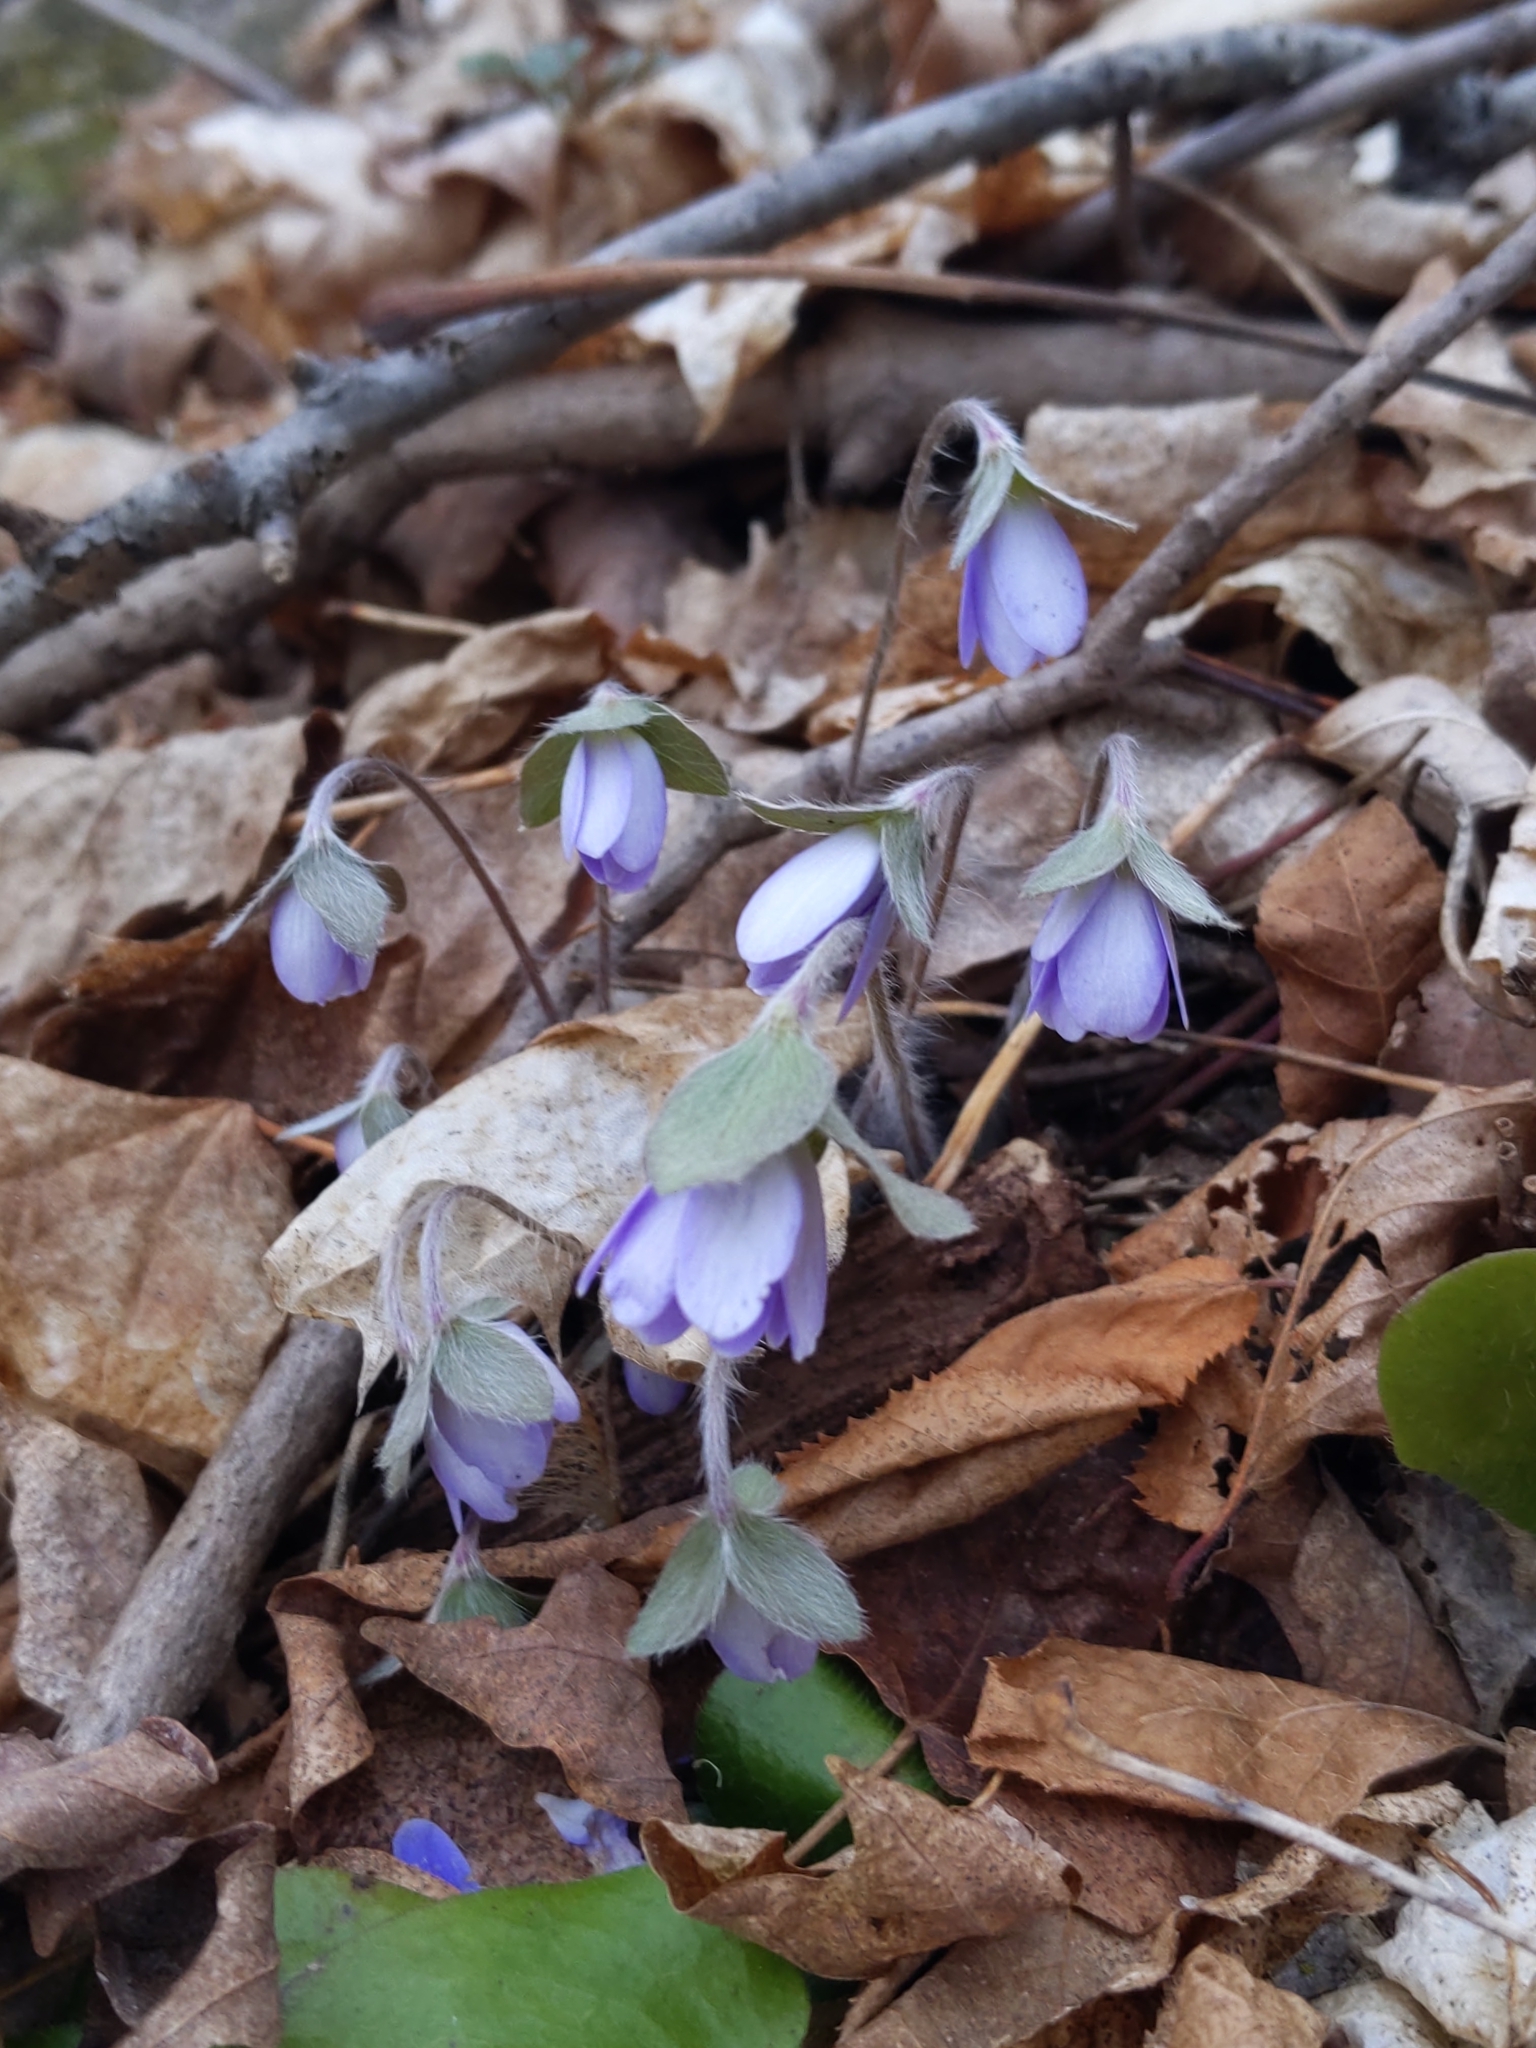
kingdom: Plantae
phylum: Tracheophyta
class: Magnoliopsida
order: Ranunculales
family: Ranunculaceae
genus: Hepatica
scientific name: Hepatica americana
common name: American hepatica
